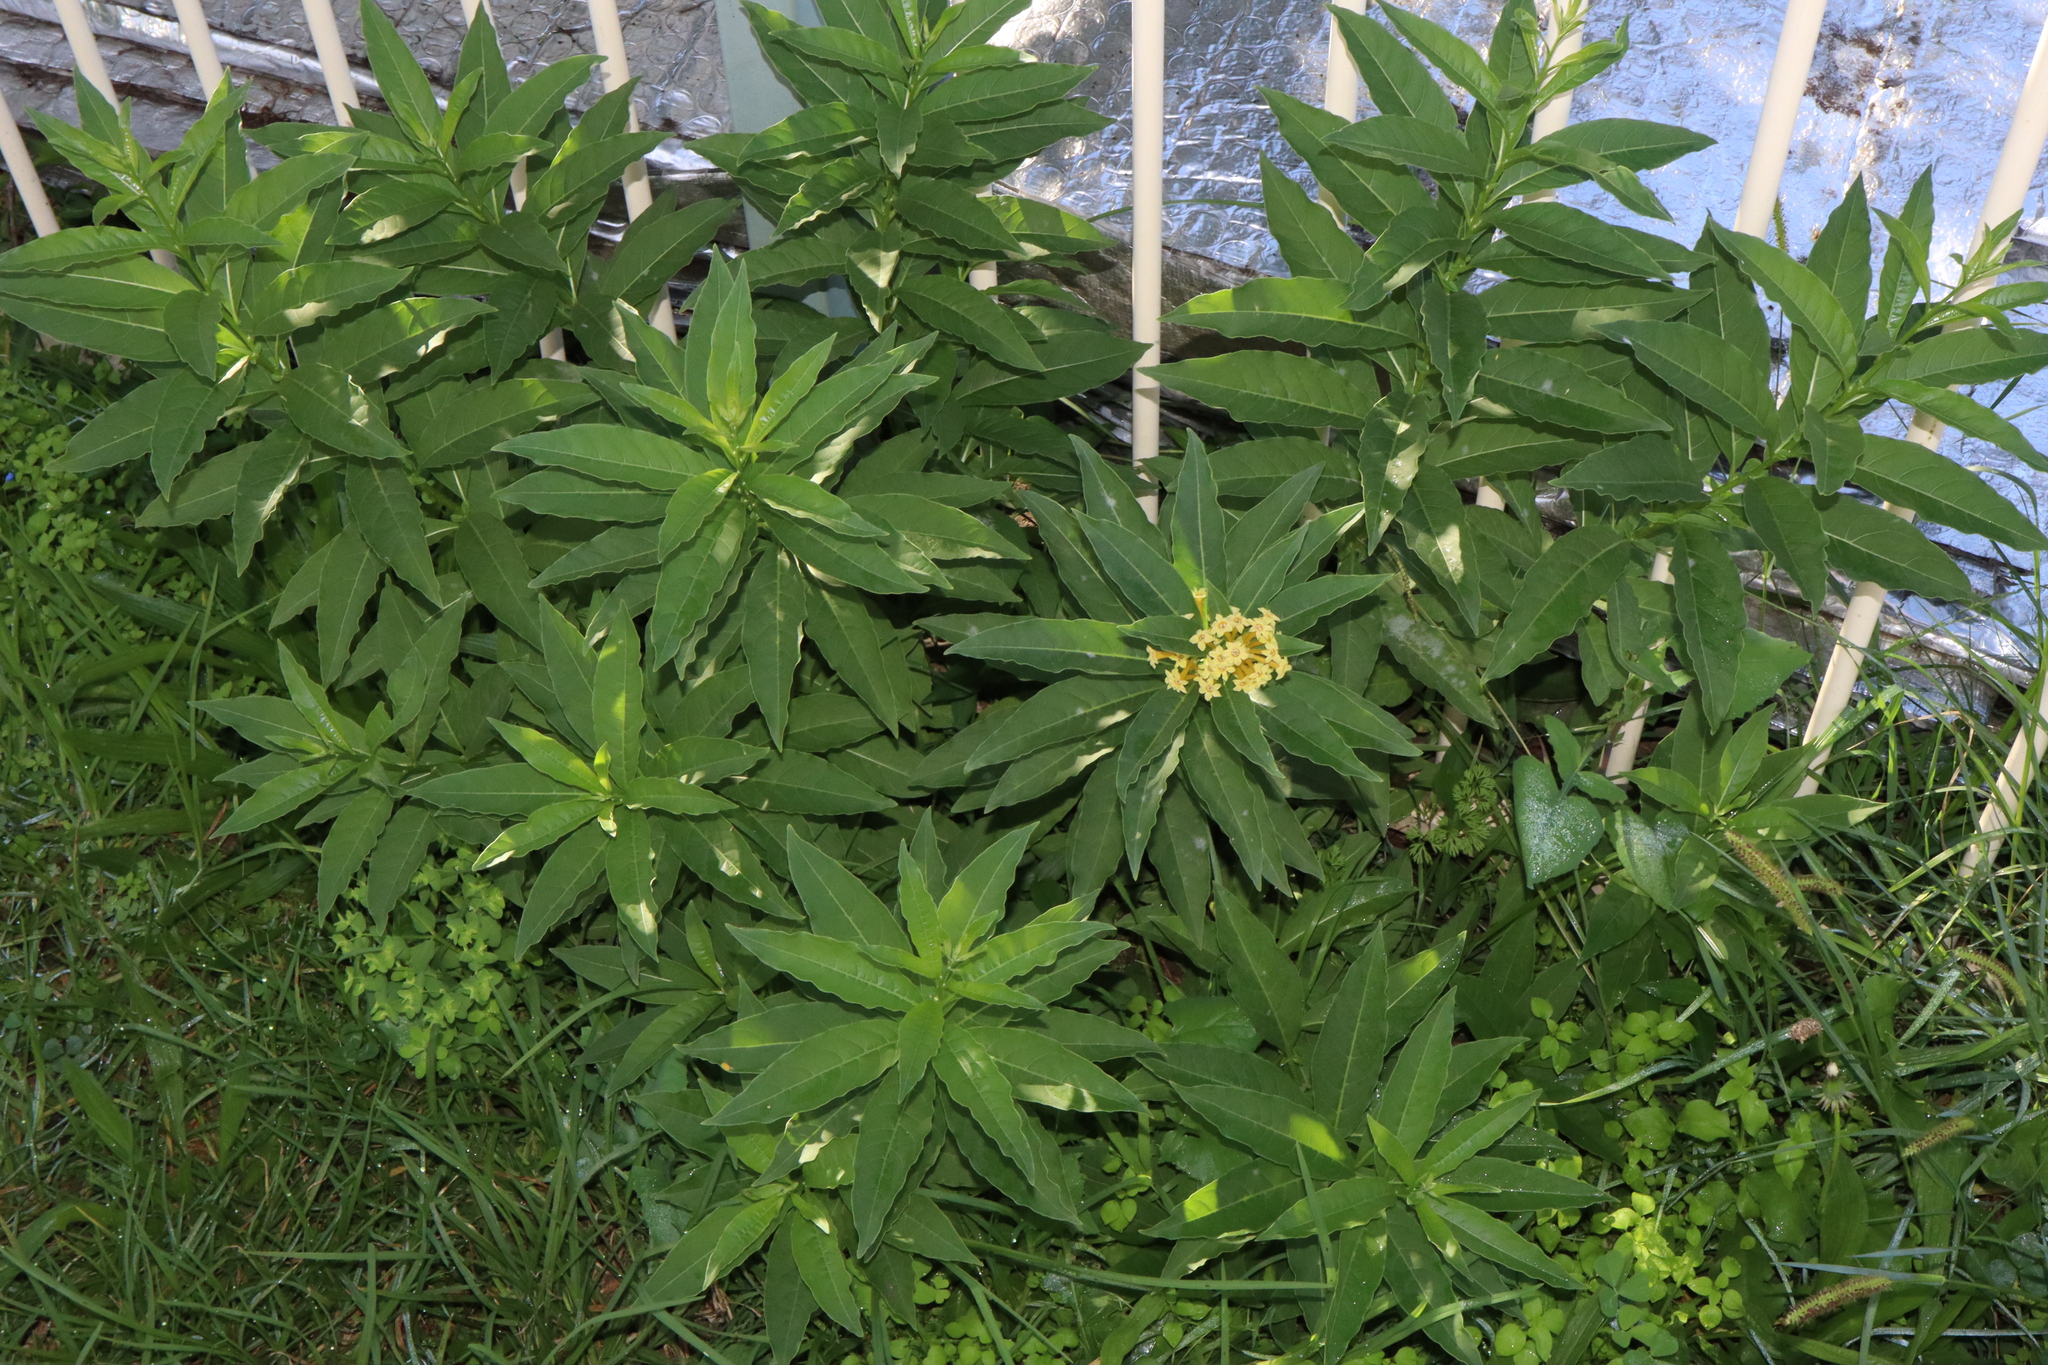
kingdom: Plantae
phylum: Tracheophyta
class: Magnoliopsida
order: Solanales
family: Solanaceae
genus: Cestrum
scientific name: Cestrum parqui
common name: Chilean cestrum
